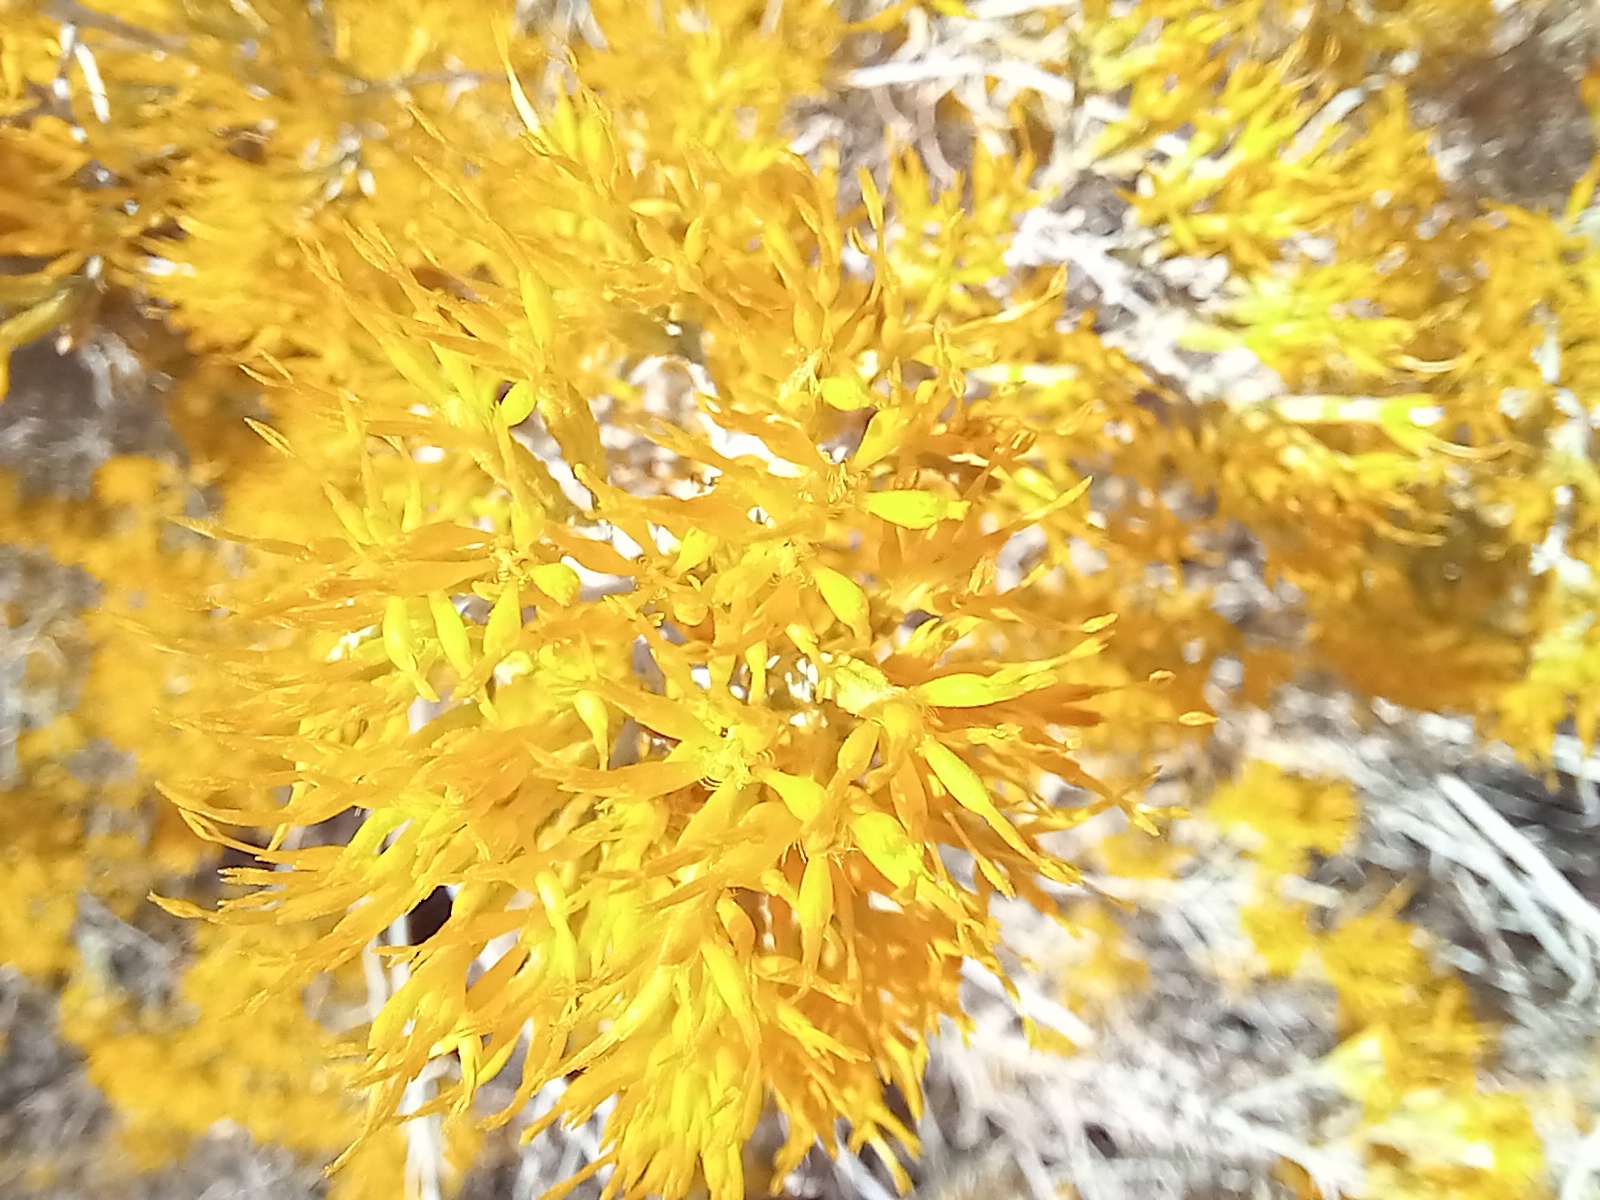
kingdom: Plantae
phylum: Tracheophyta
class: Magnoliopsida
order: Asterales
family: Asteraceae
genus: Ericameria
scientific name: Ericameria nauseosa
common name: Rubber rabbitbrush
